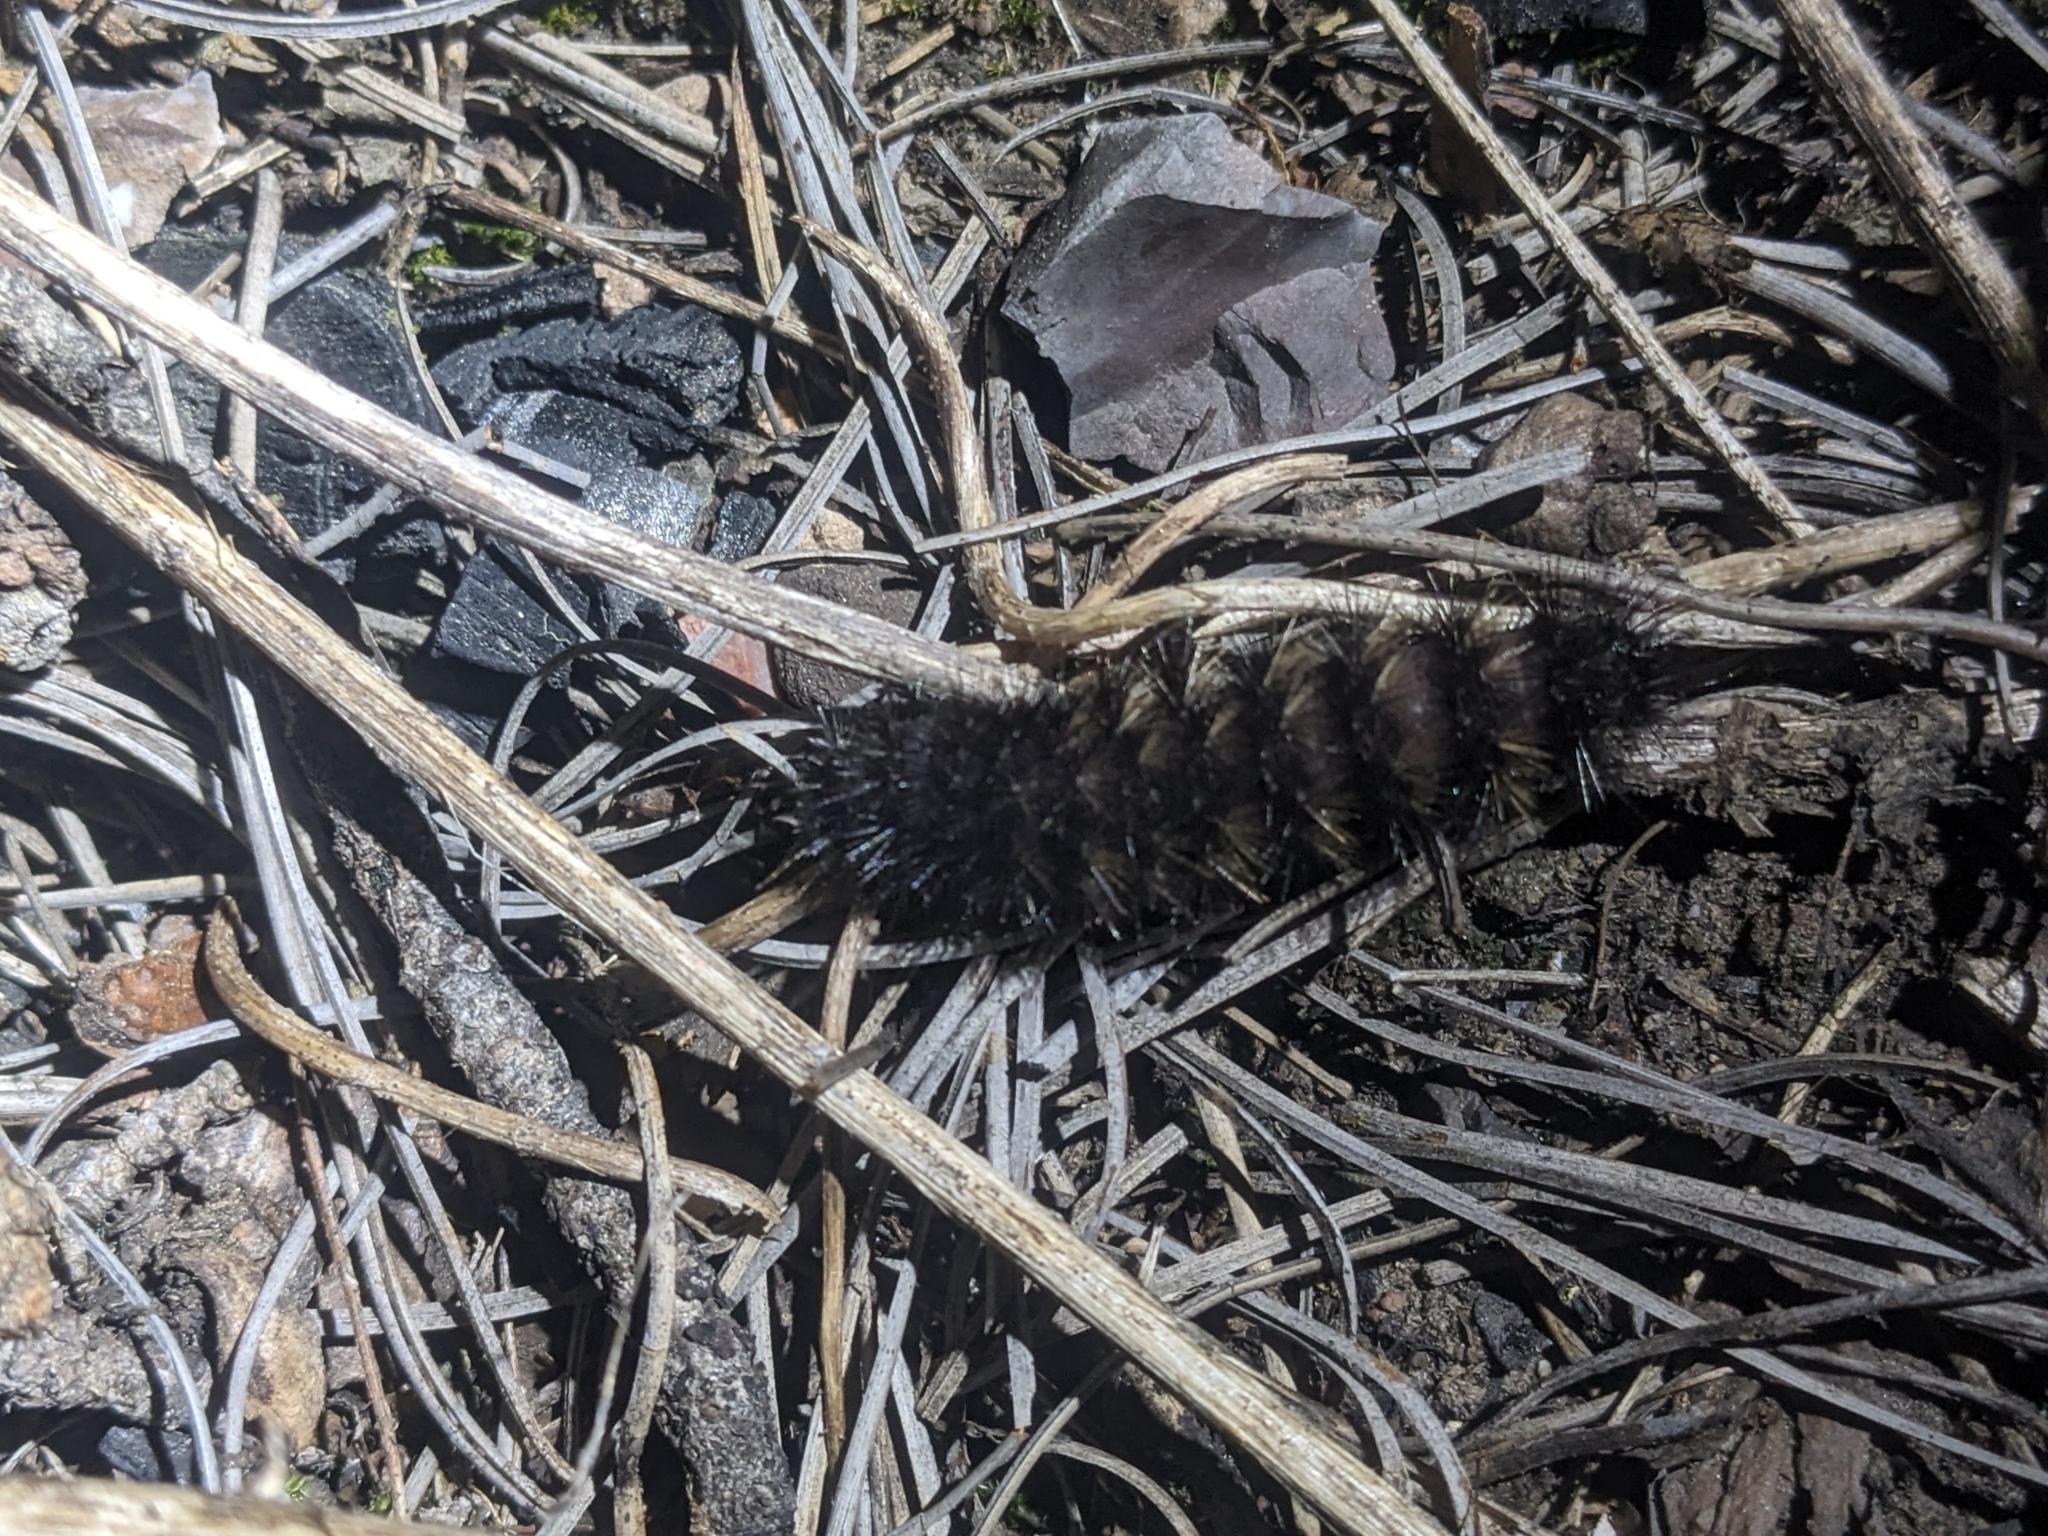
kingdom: Animalia
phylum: Arthropoda
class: Insecta
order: Lepidoptera
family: Erebidae
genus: Hypercompe
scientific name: Hypercompe permaculata
